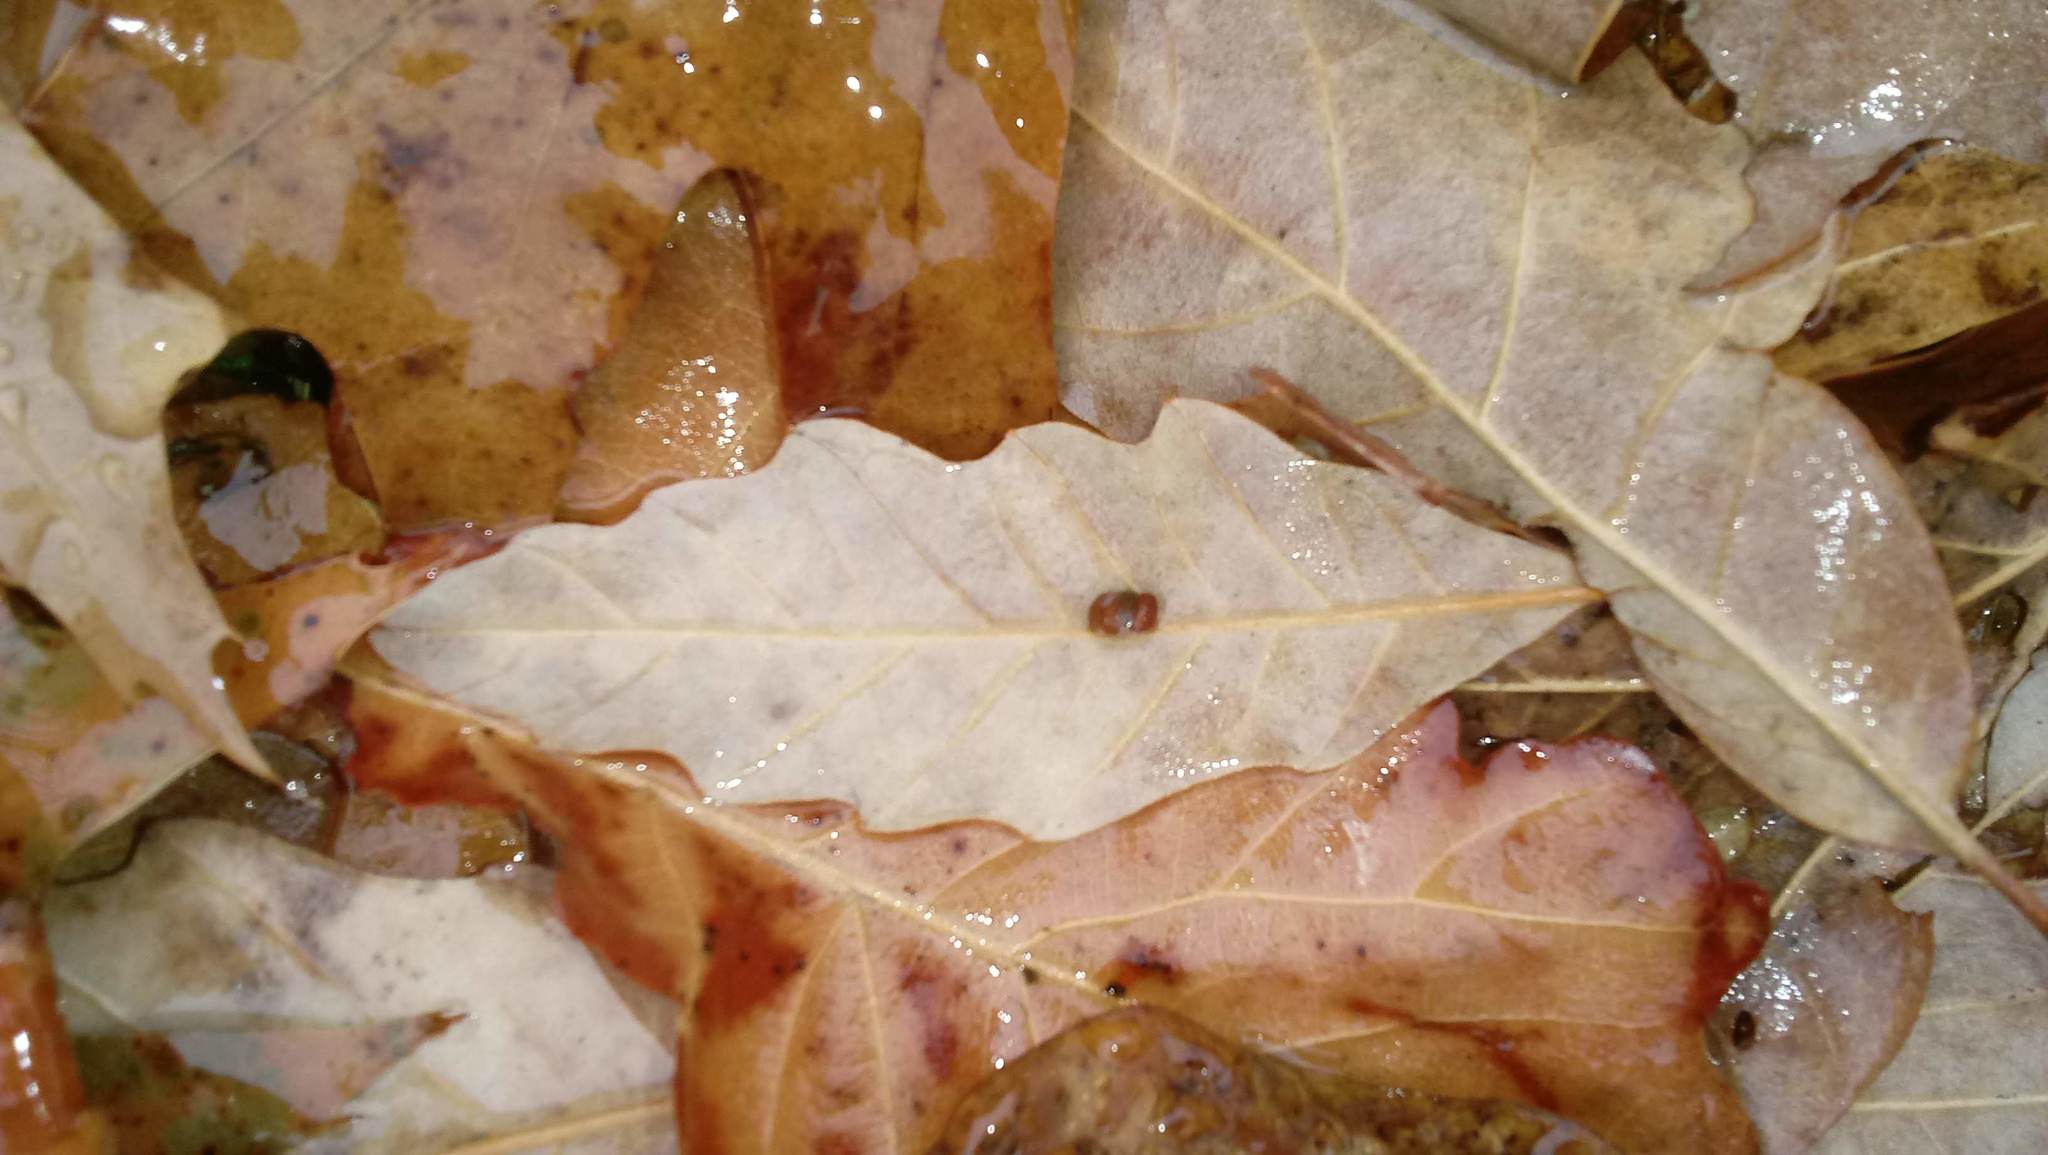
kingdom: Animalia
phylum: Arthropoda
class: Insecta
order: Hymenoptera
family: Cynipidae
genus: Andricus
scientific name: Andricus Druon ignotum
